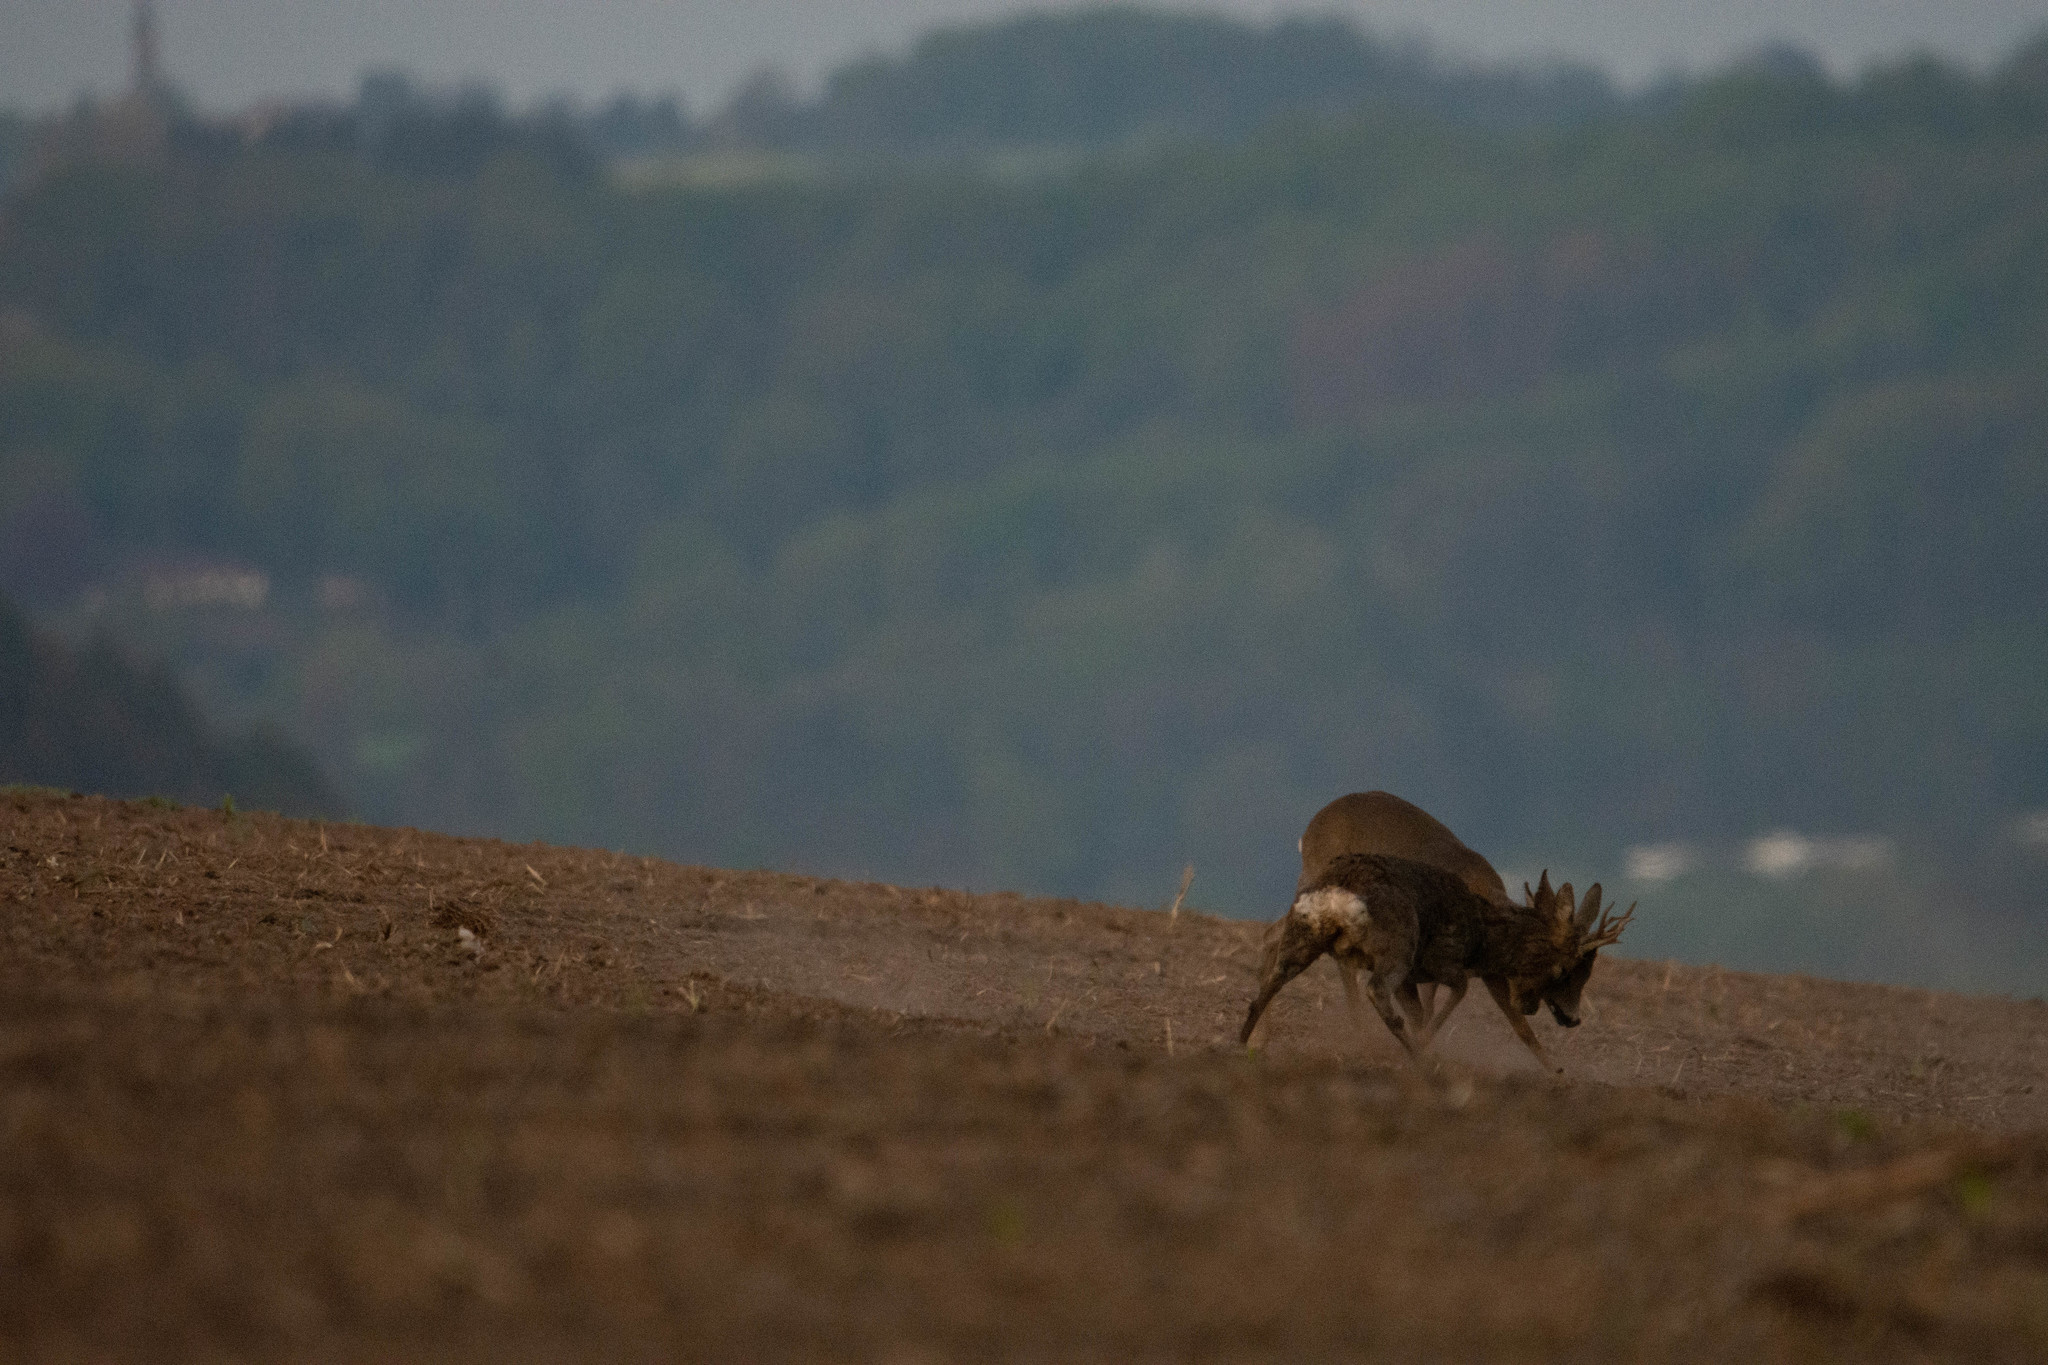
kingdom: Animalia
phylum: Chordata
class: Mammalia
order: Artiodactyla
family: Cervidae
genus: Capreolus
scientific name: Capreolus capreolus
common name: Western roe deer
